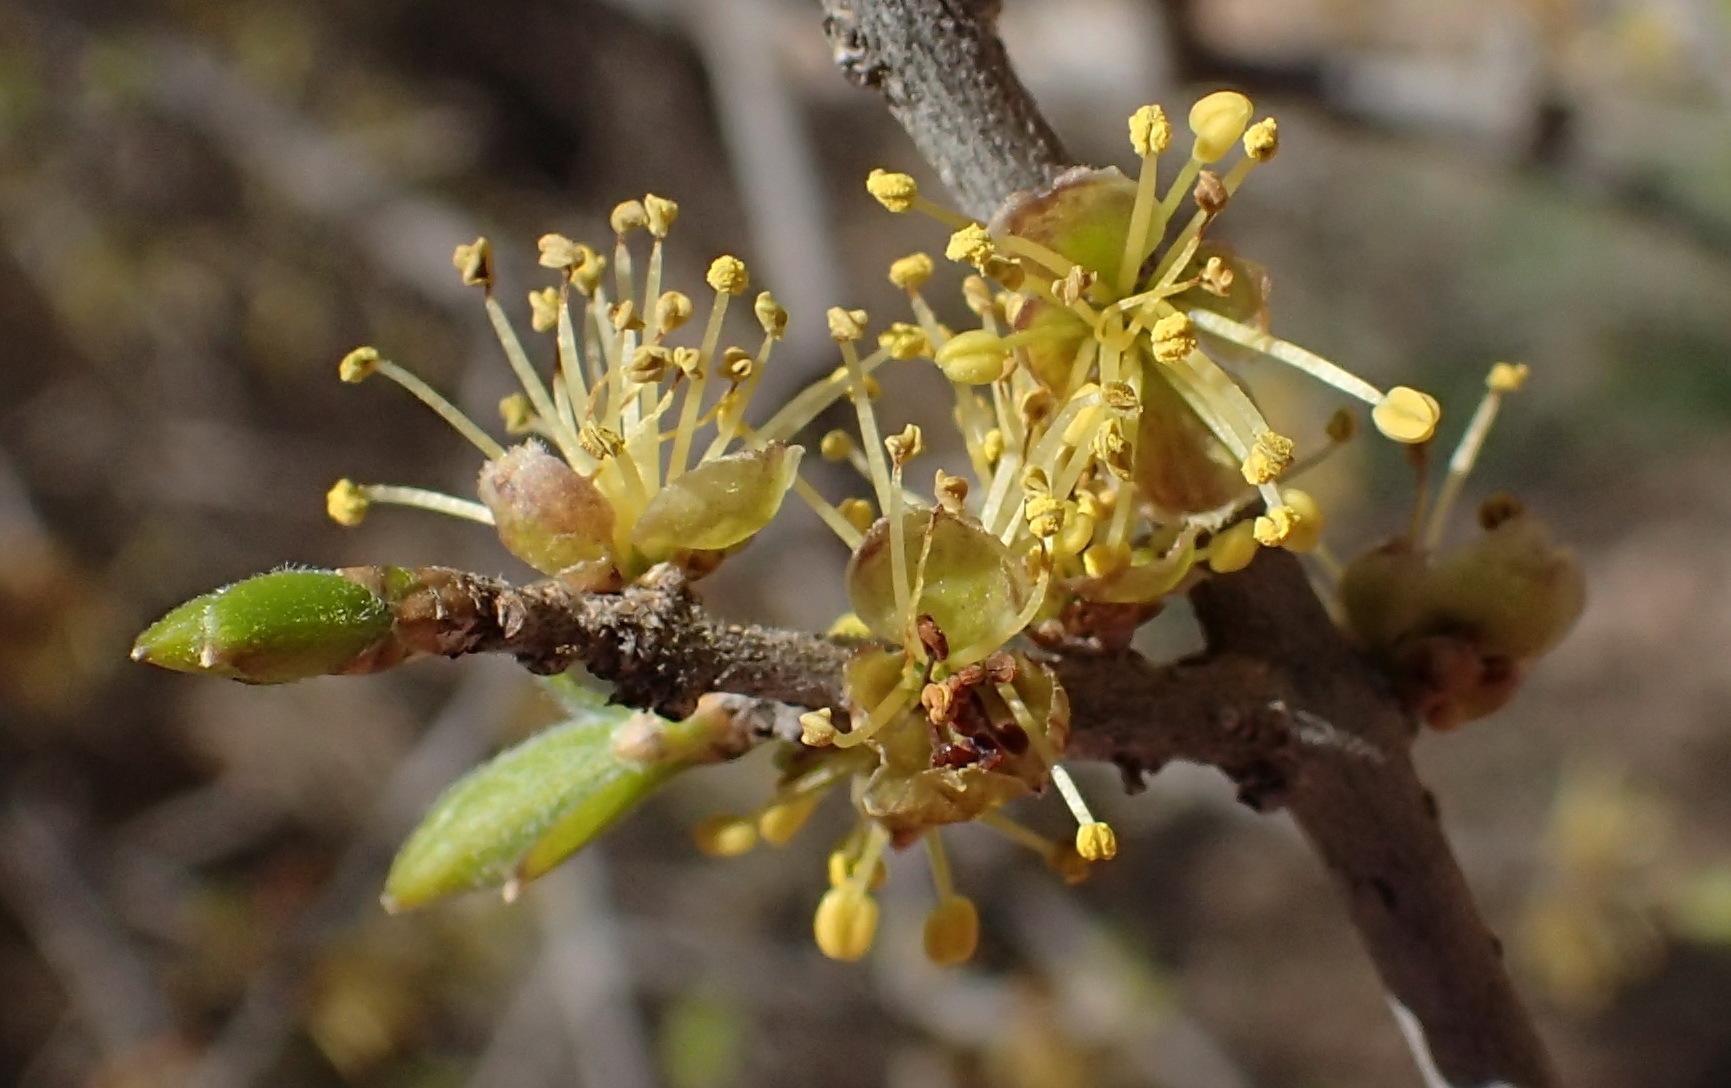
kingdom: Plantae
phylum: Tracheophyta
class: Magnoliopsida
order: Lamiales
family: Oleaceae
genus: Forestiera
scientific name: Forestiera pubescens
